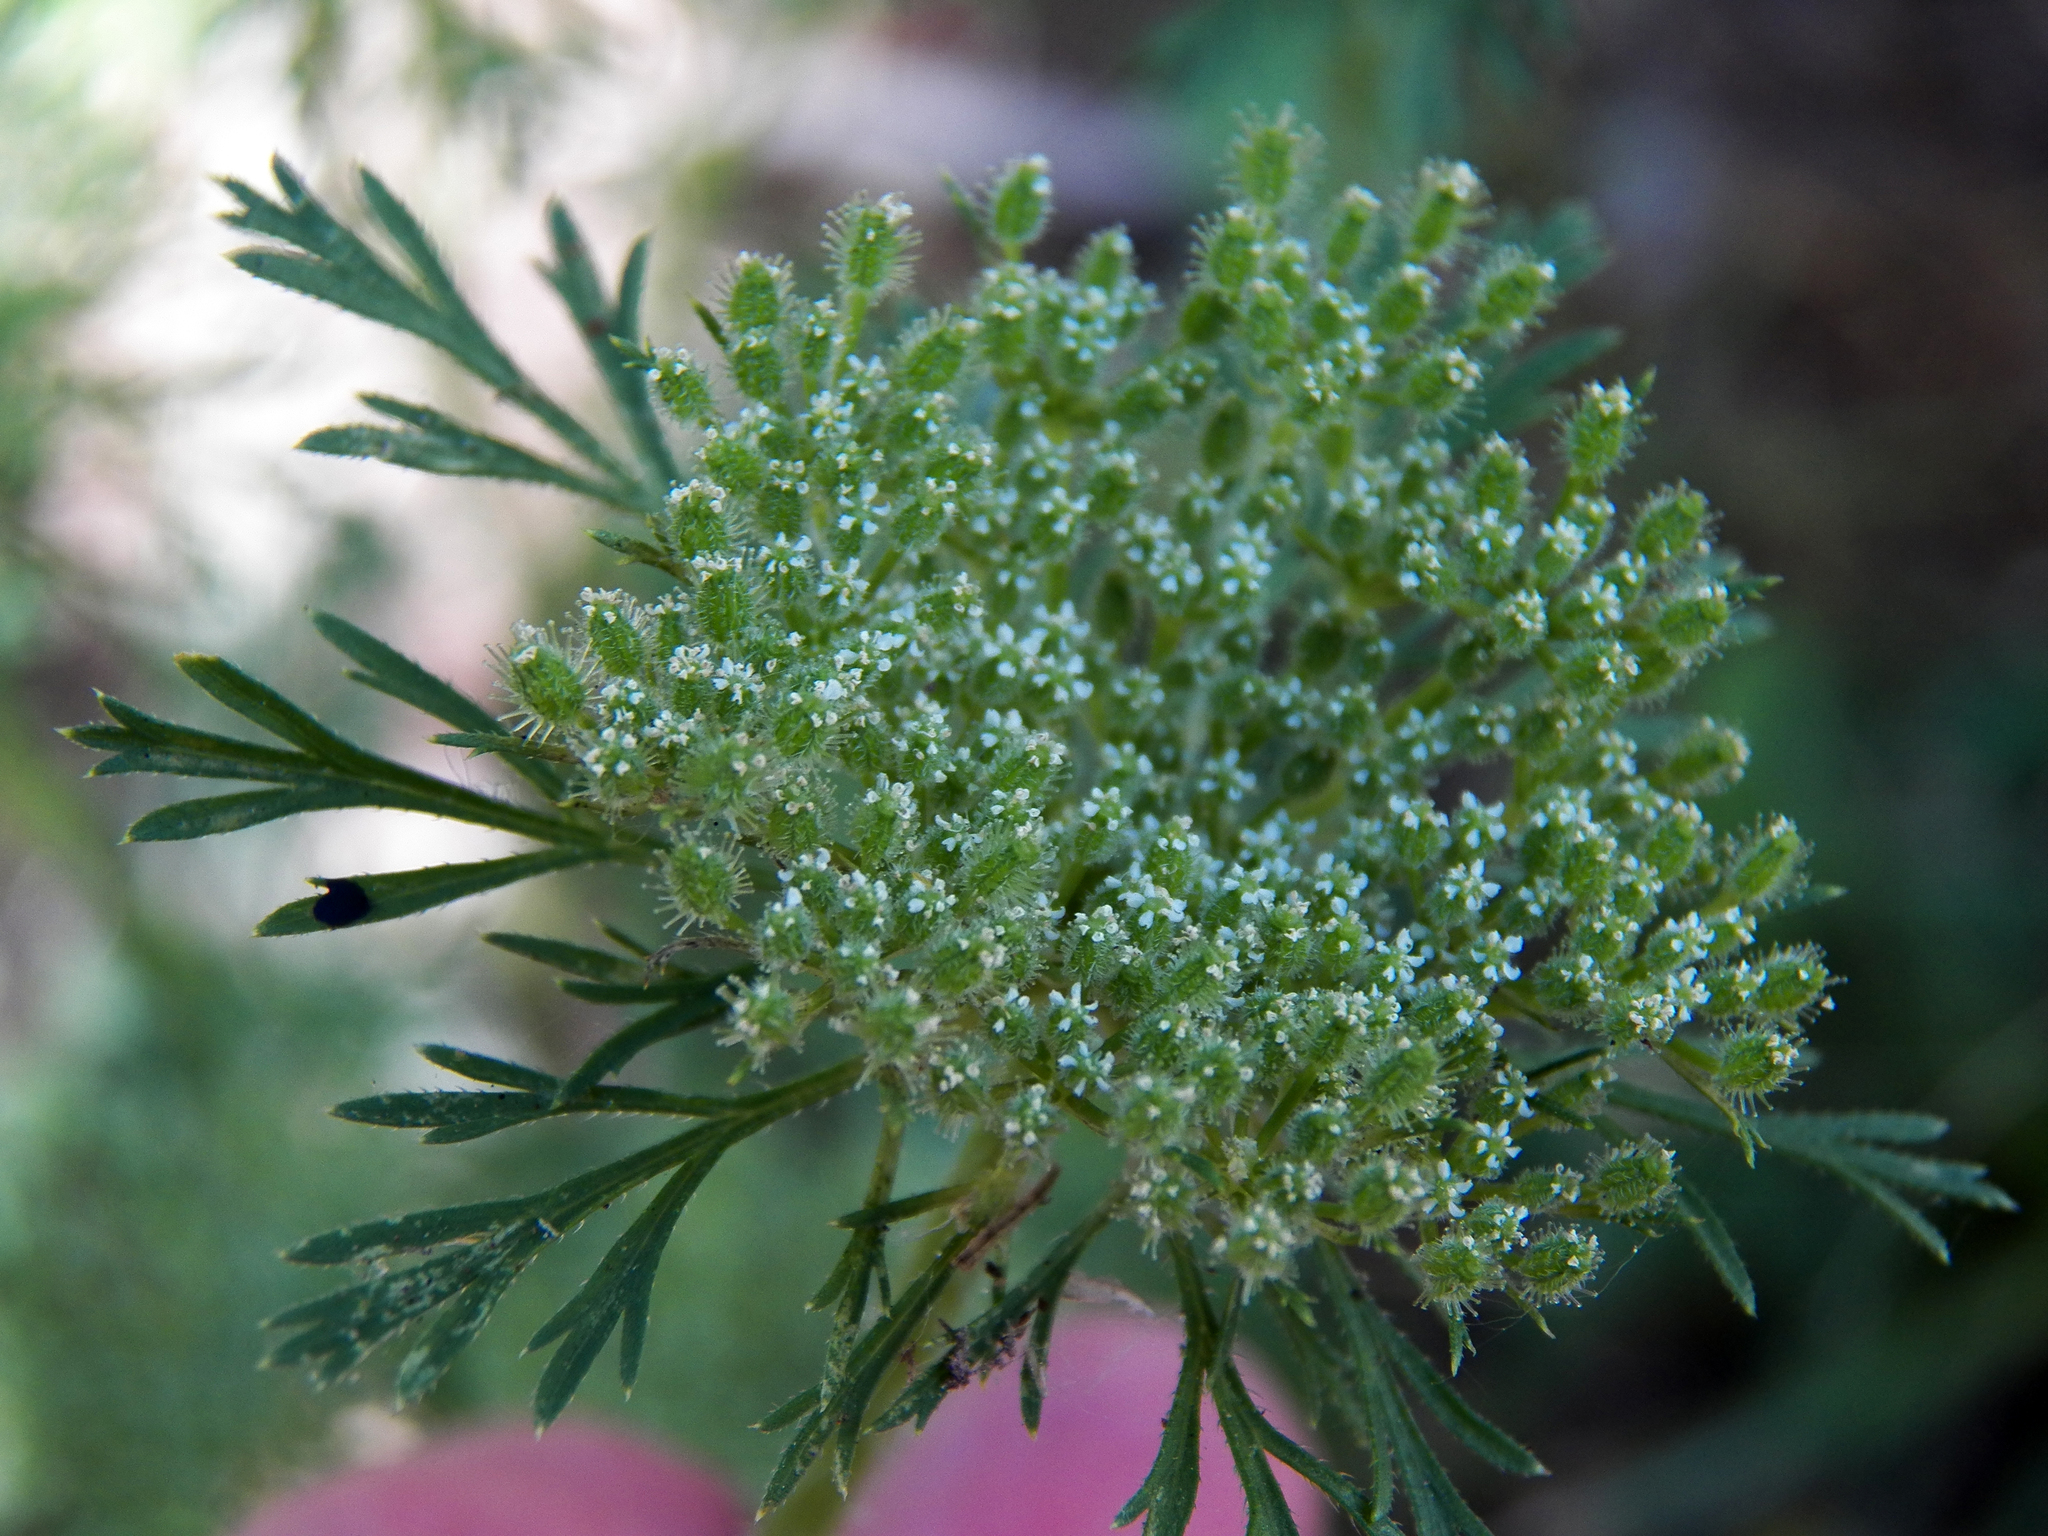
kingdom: Plantae
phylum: Tracheophyta
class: Magnoliopsida
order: Apiales
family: Apiaceae
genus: Daucus
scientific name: Daucus pusillus
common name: Southwest wild carrot
